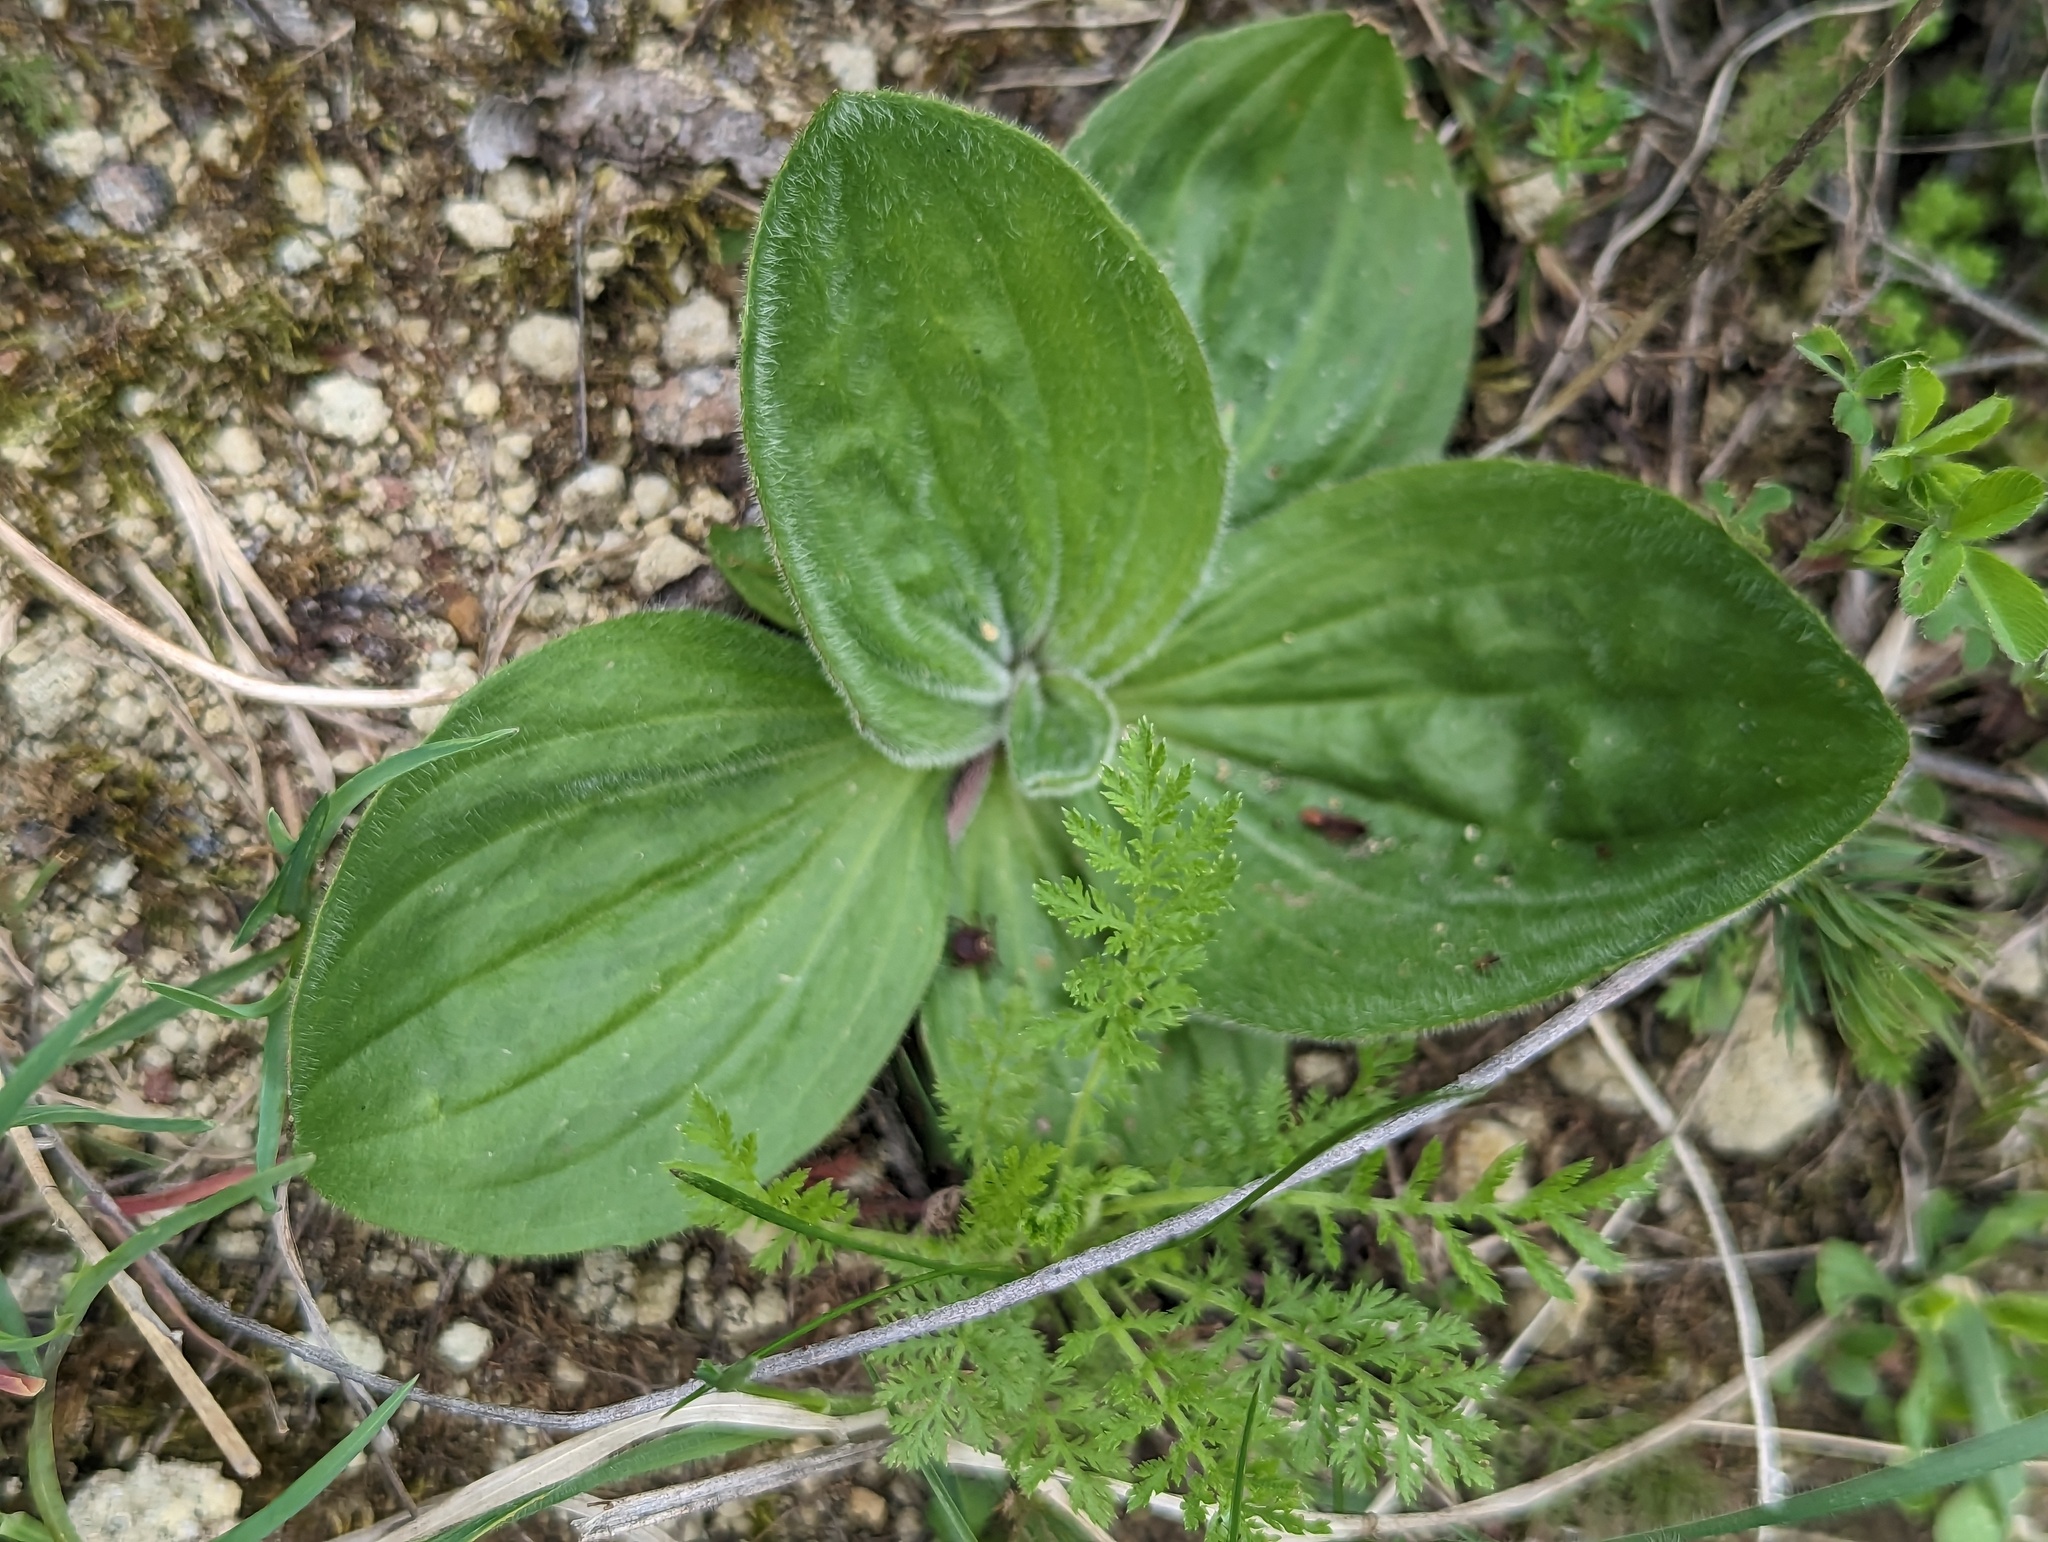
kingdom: Plantae
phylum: Tracheophyta
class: Magnoliopsida
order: Lamiales
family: Plantaginaceae
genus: Plantago
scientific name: Plantago media
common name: Hoary plantain
